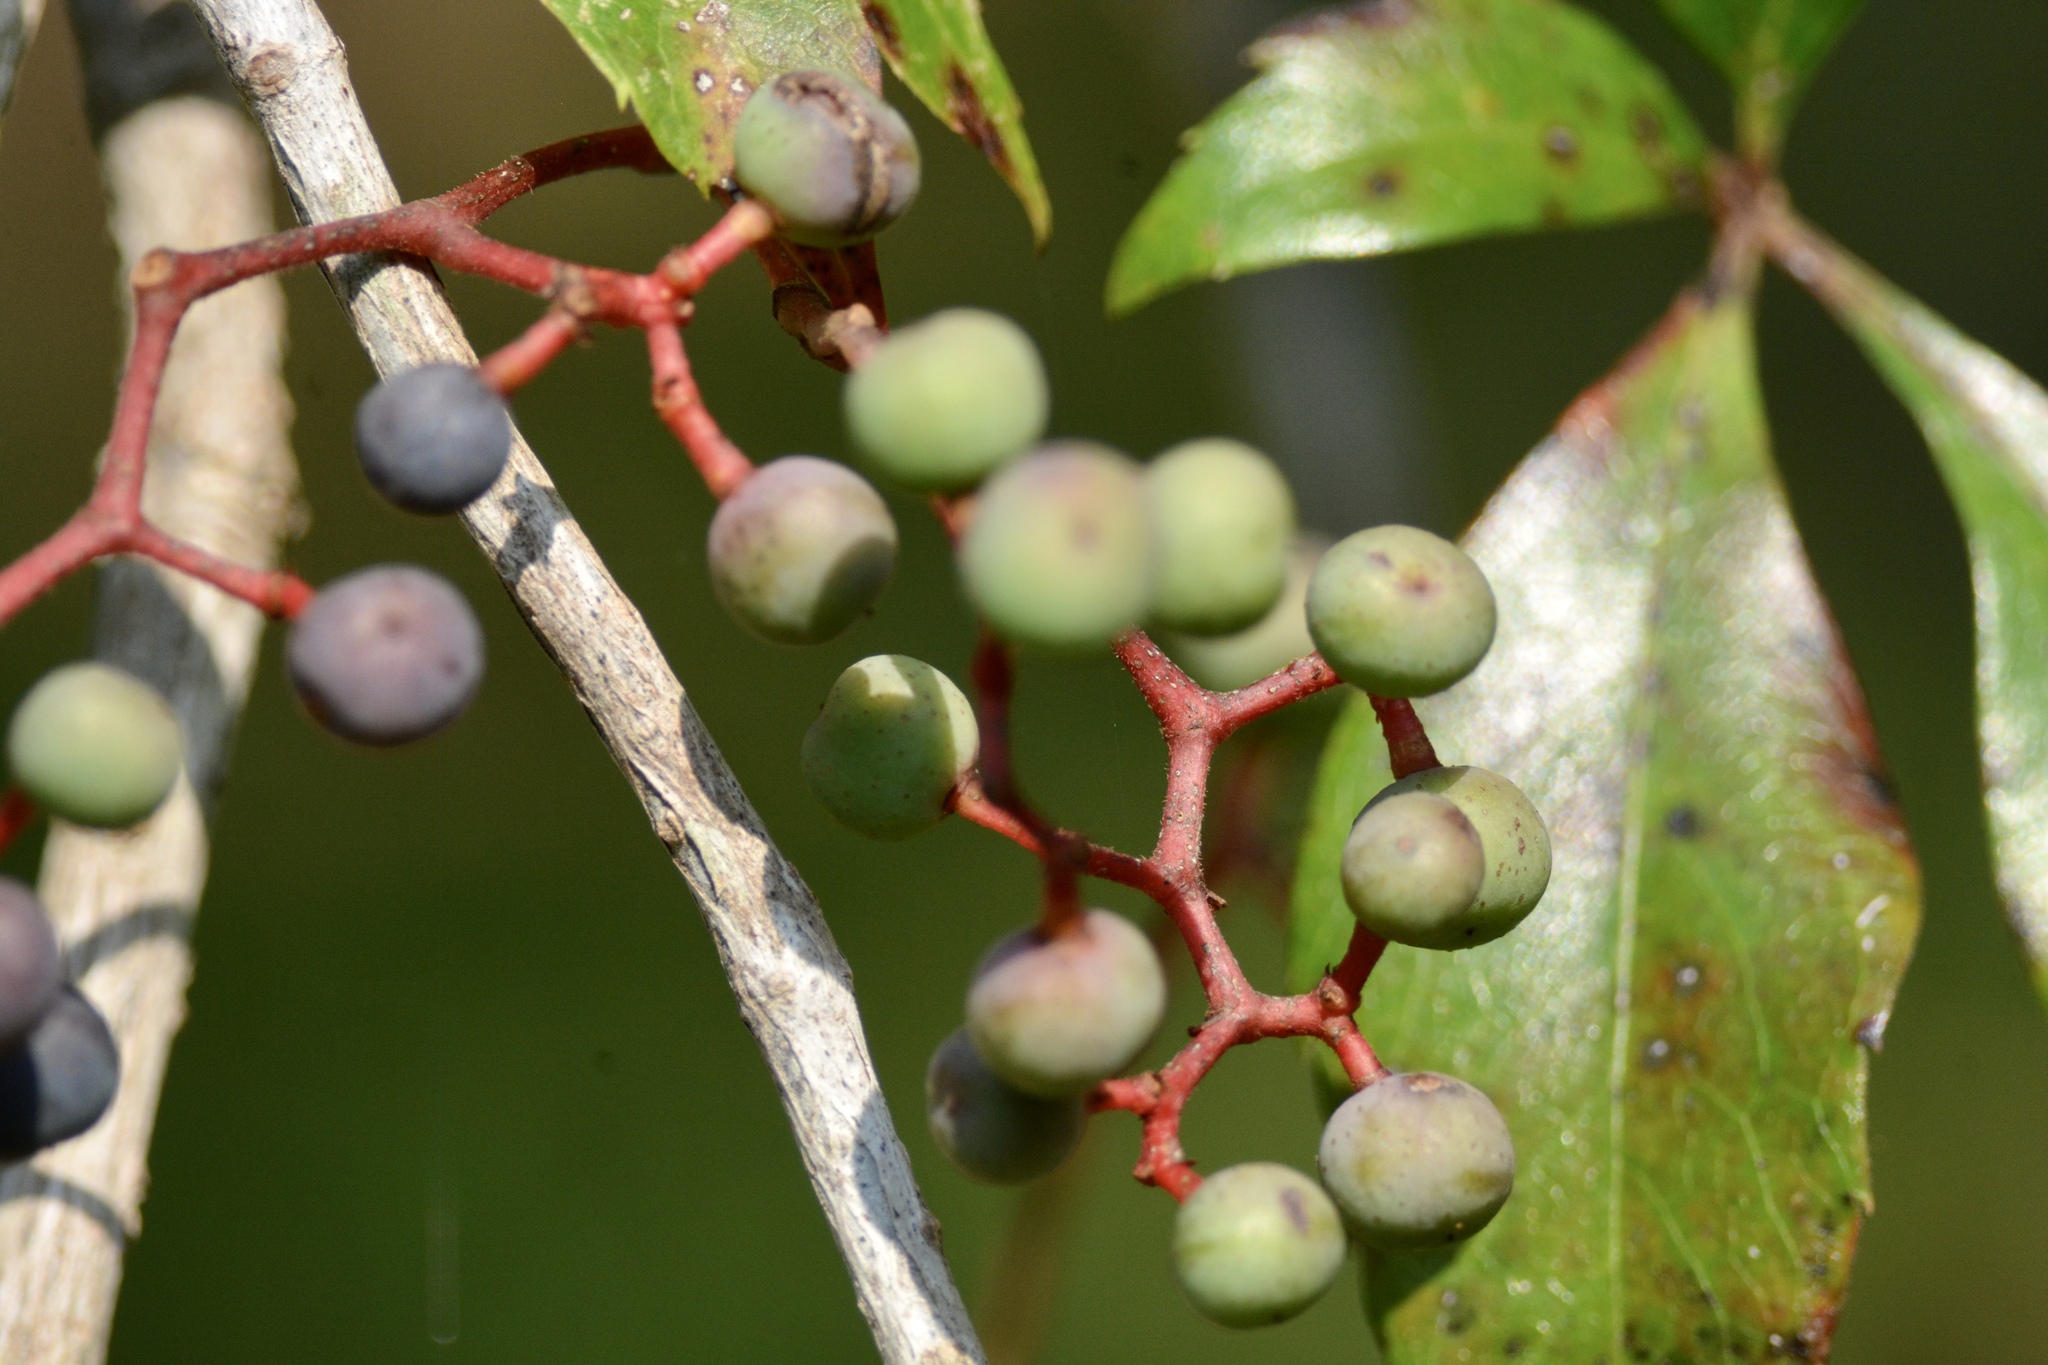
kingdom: Plantae
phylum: Tracheophyta
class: Magnoliopsida
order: Vitales
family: Vitaceae
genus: Parthenocissus
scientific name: Parthenocissus quinquefolia
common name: Virginia-creeper
